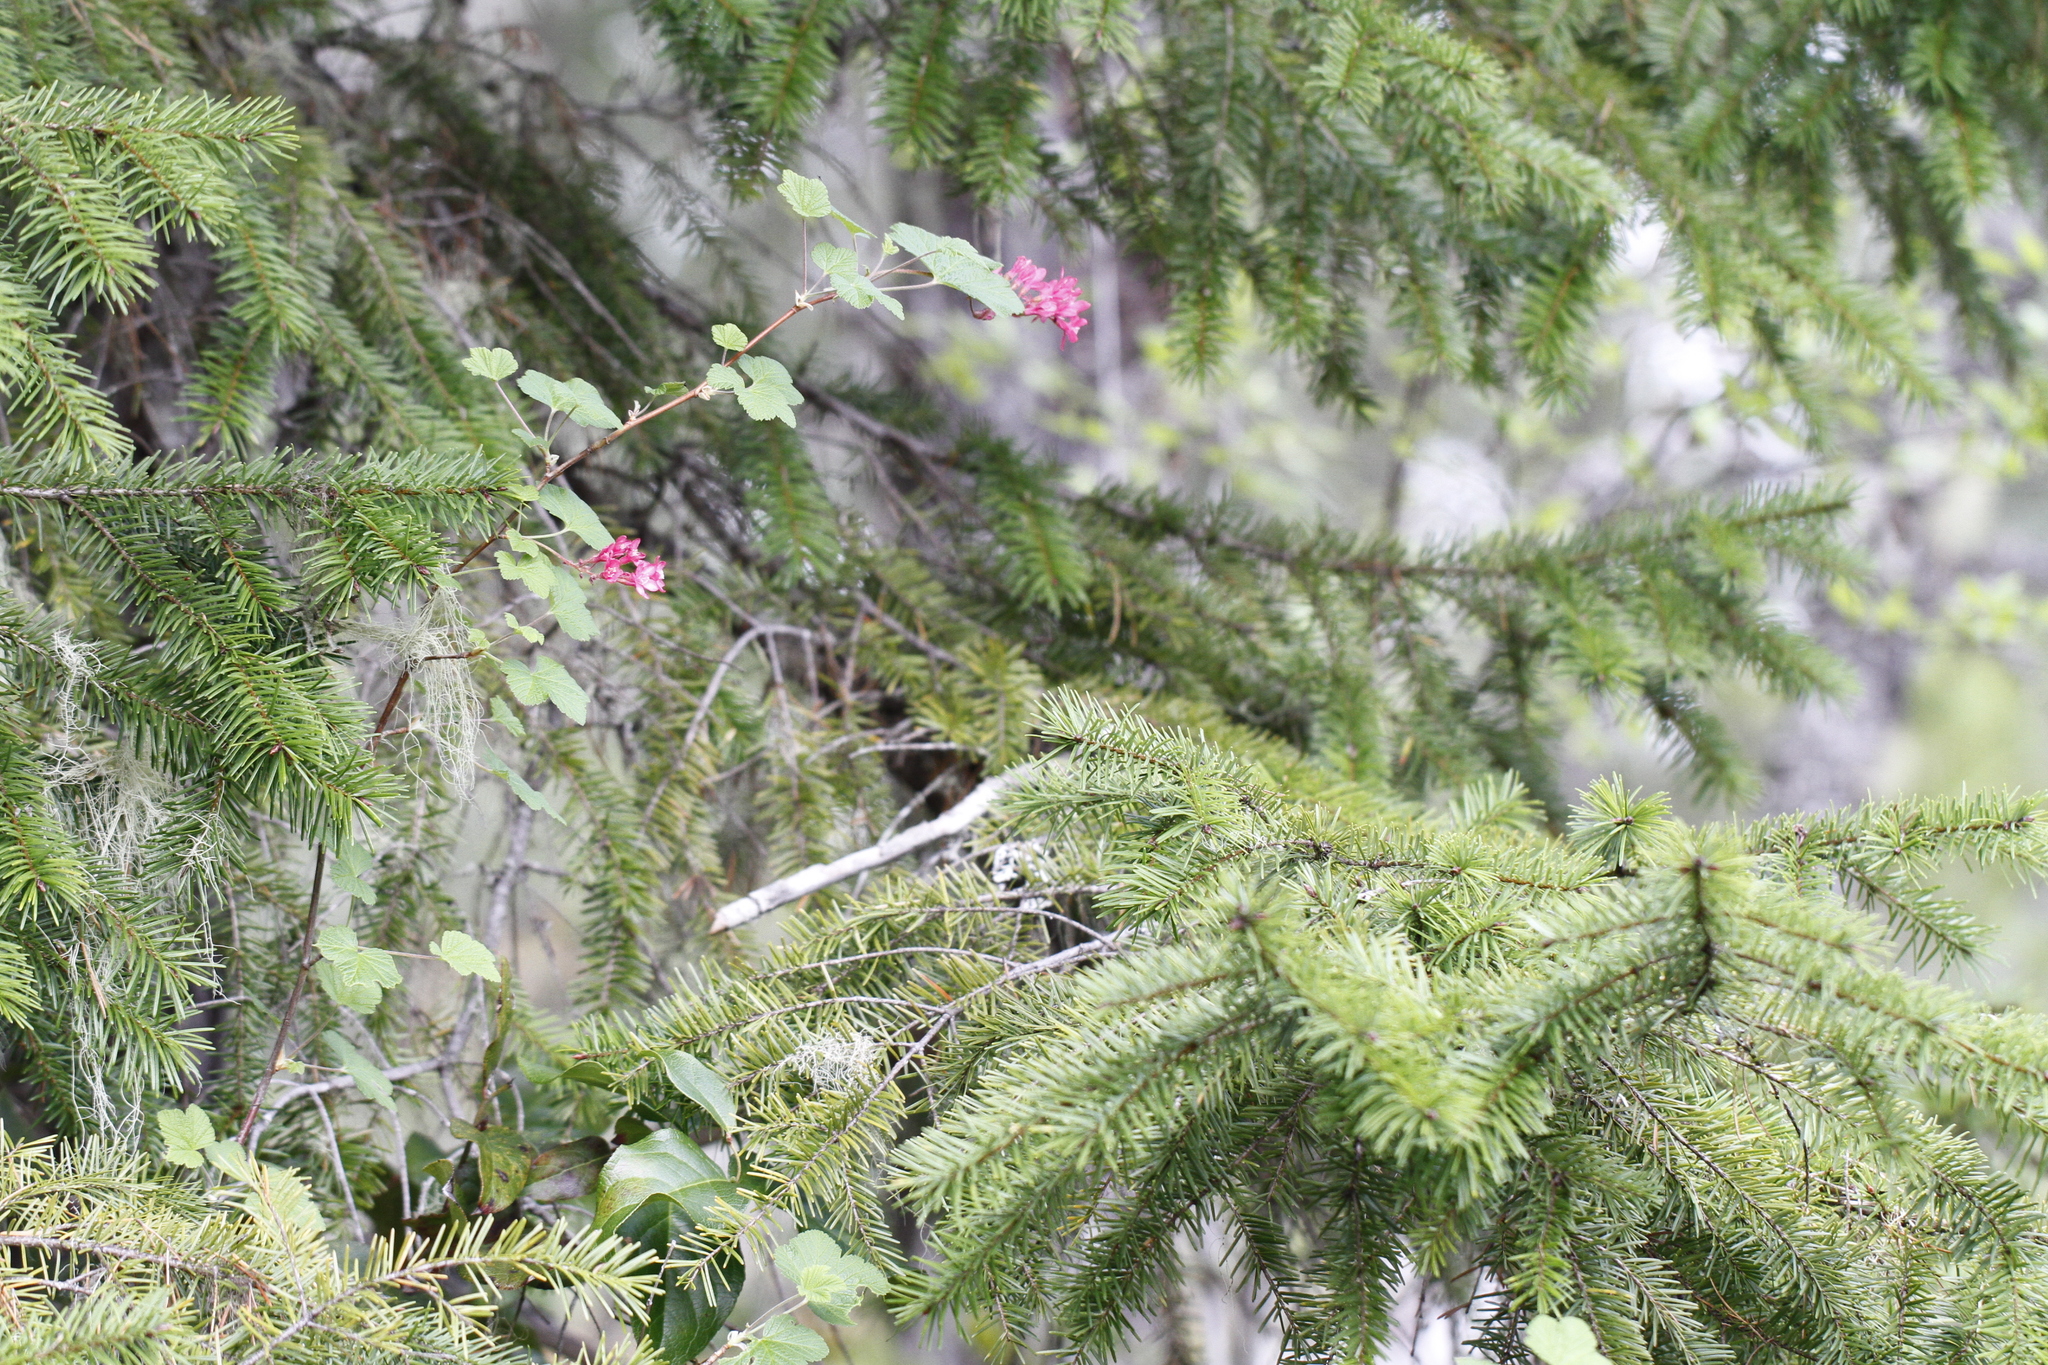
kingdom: Plantae
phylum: Tracheophyta
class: Magnoliopsida
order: Saxifragales
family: Grossulariaceae
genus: Ribes
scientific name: Ribes sanguineum
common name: Flowering currant
